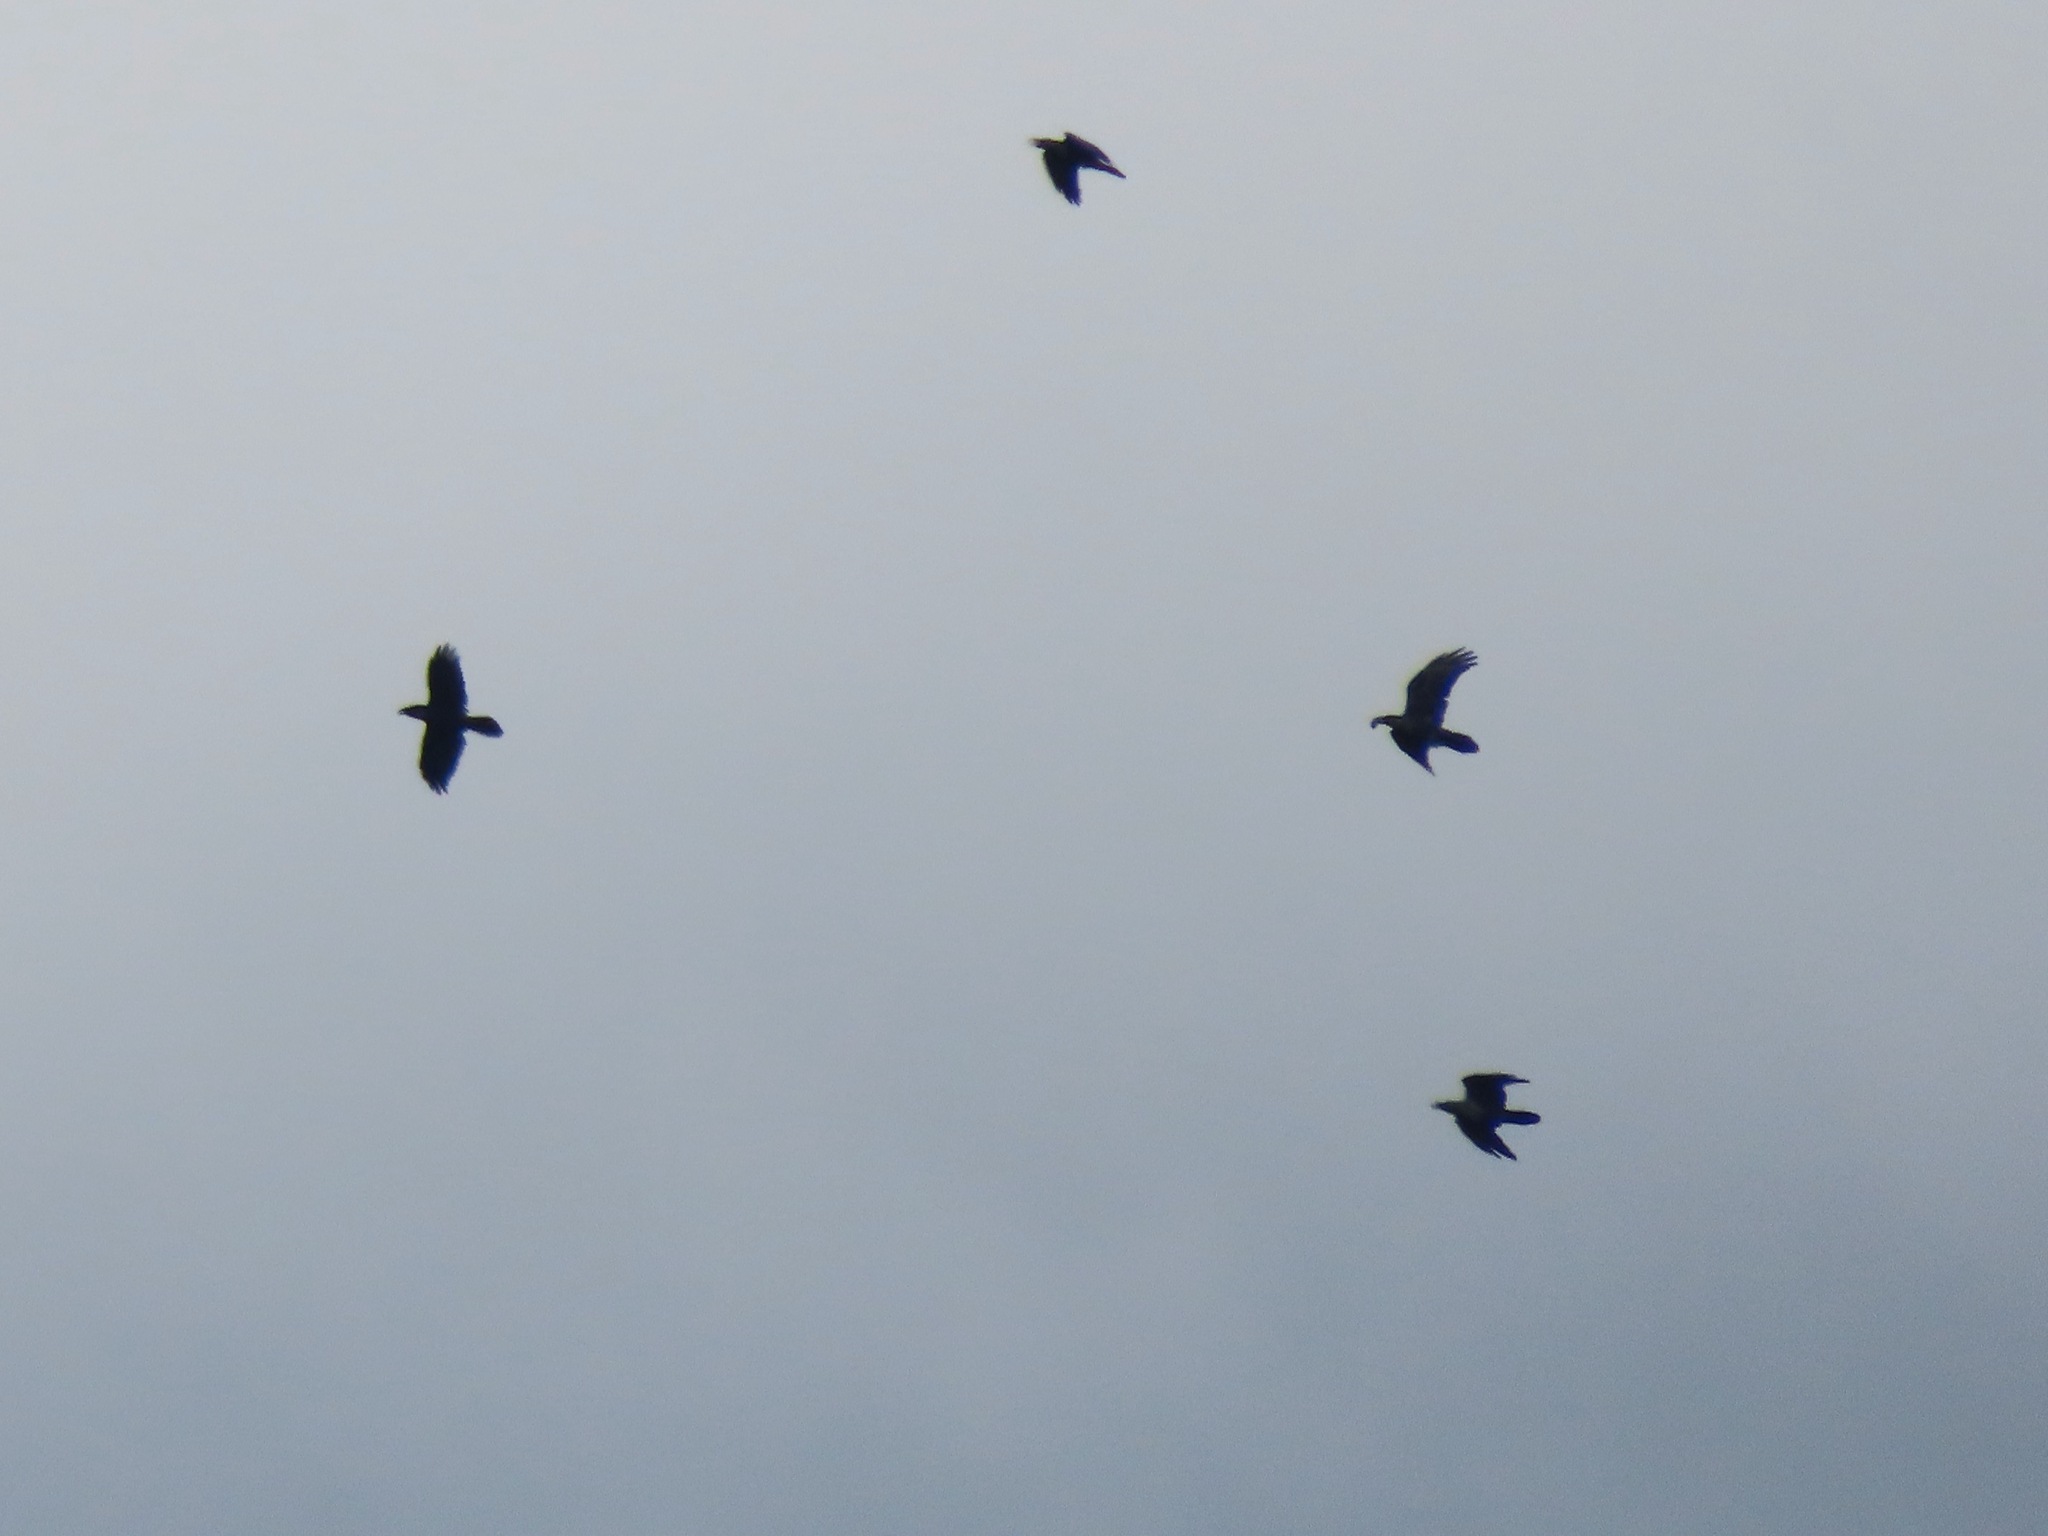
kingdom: Animalia
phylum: Chordata
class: Aves
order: Passeriformes
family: Corvidae
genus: Corvus
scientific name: Corvus corax
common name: Common raven
